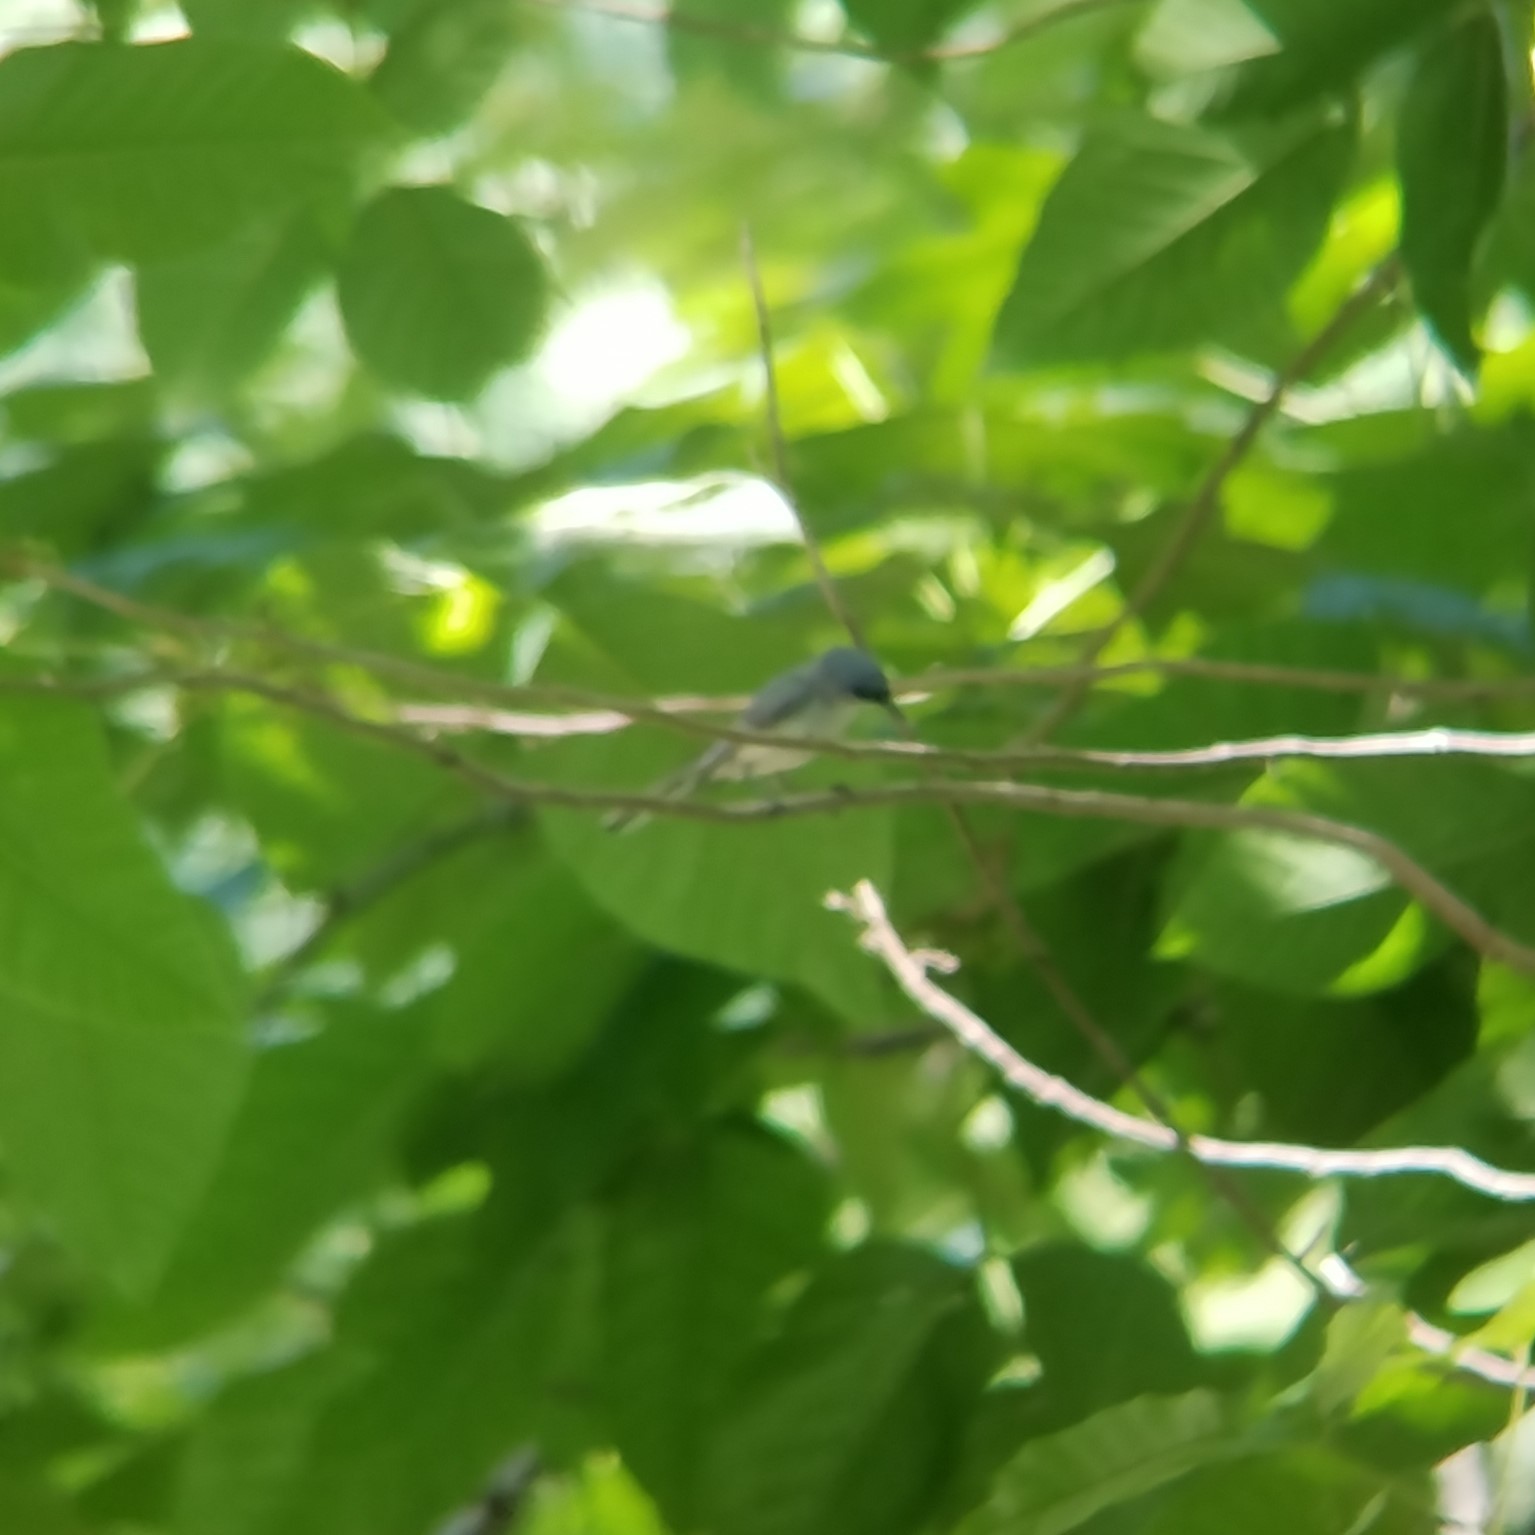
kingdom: Animalia
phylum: Chordata
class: Aves
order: Passeriformes
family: Polioptilidae
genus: Polioptila
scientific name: Polioptila caerulea
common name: Blue-gray gnatcatcher
